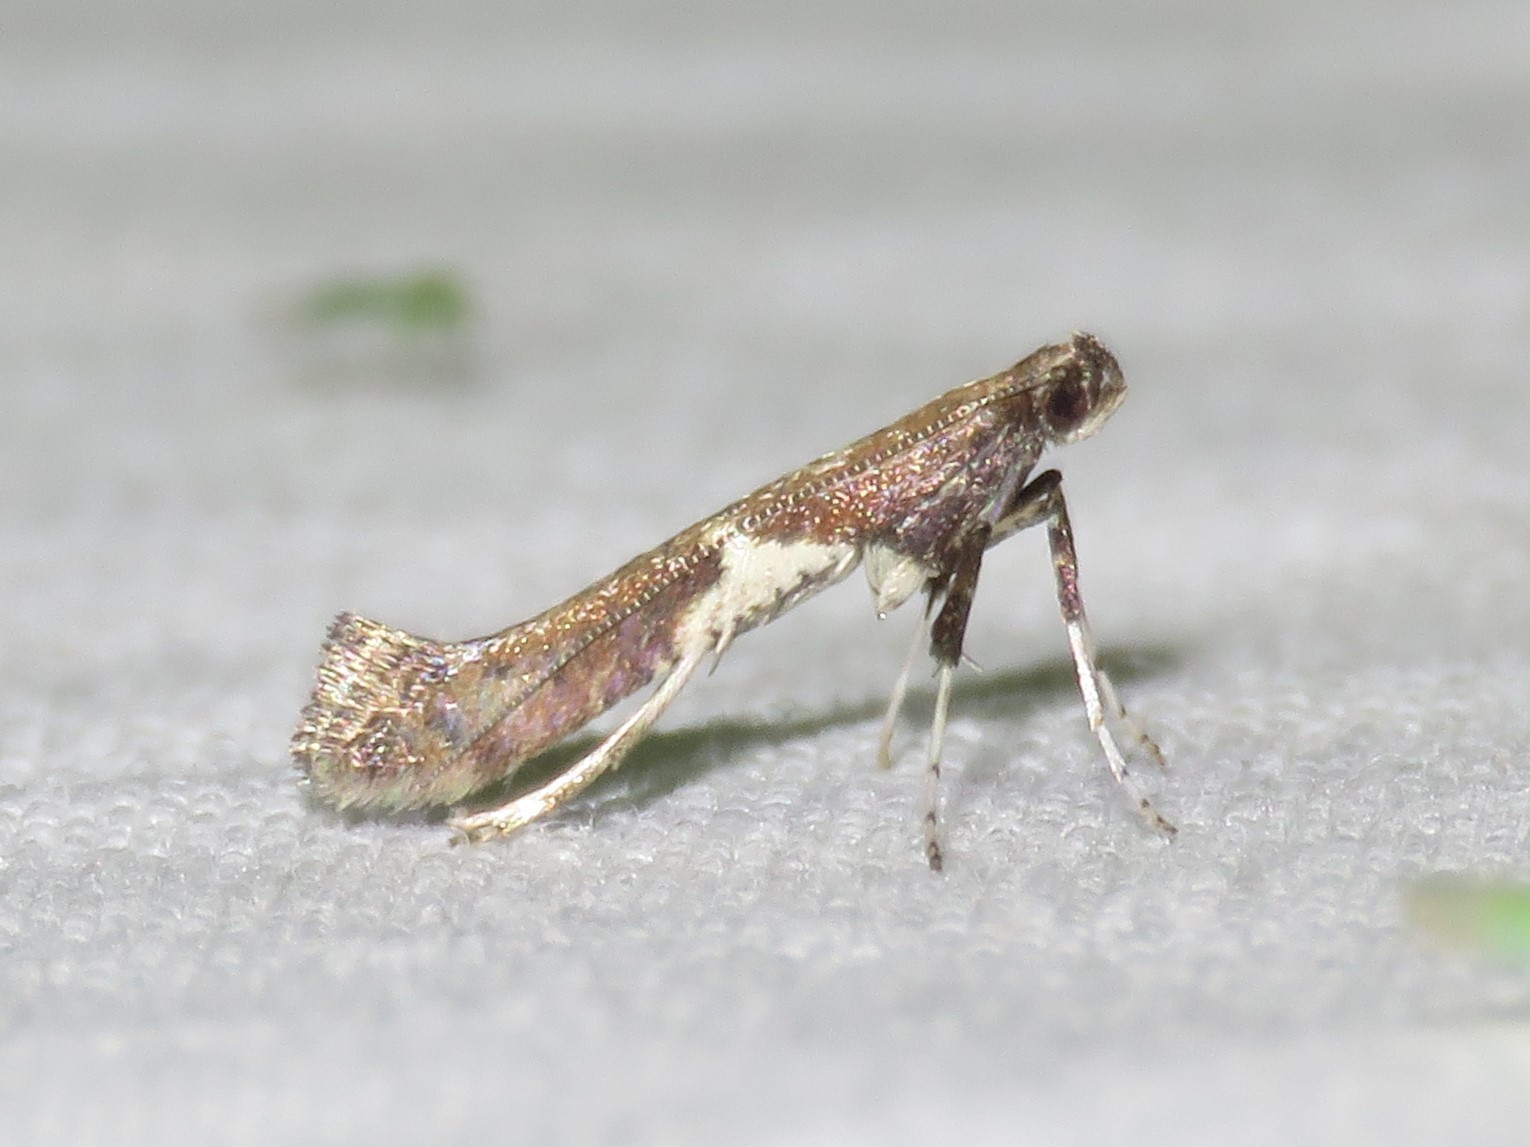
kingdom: Animalia
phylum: Arthropoda
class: Insecta
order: Lepidoptera
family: Gracillariidae
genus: Caloptilia
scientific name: Caloptilia stigmatella
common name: White-triangle slender
